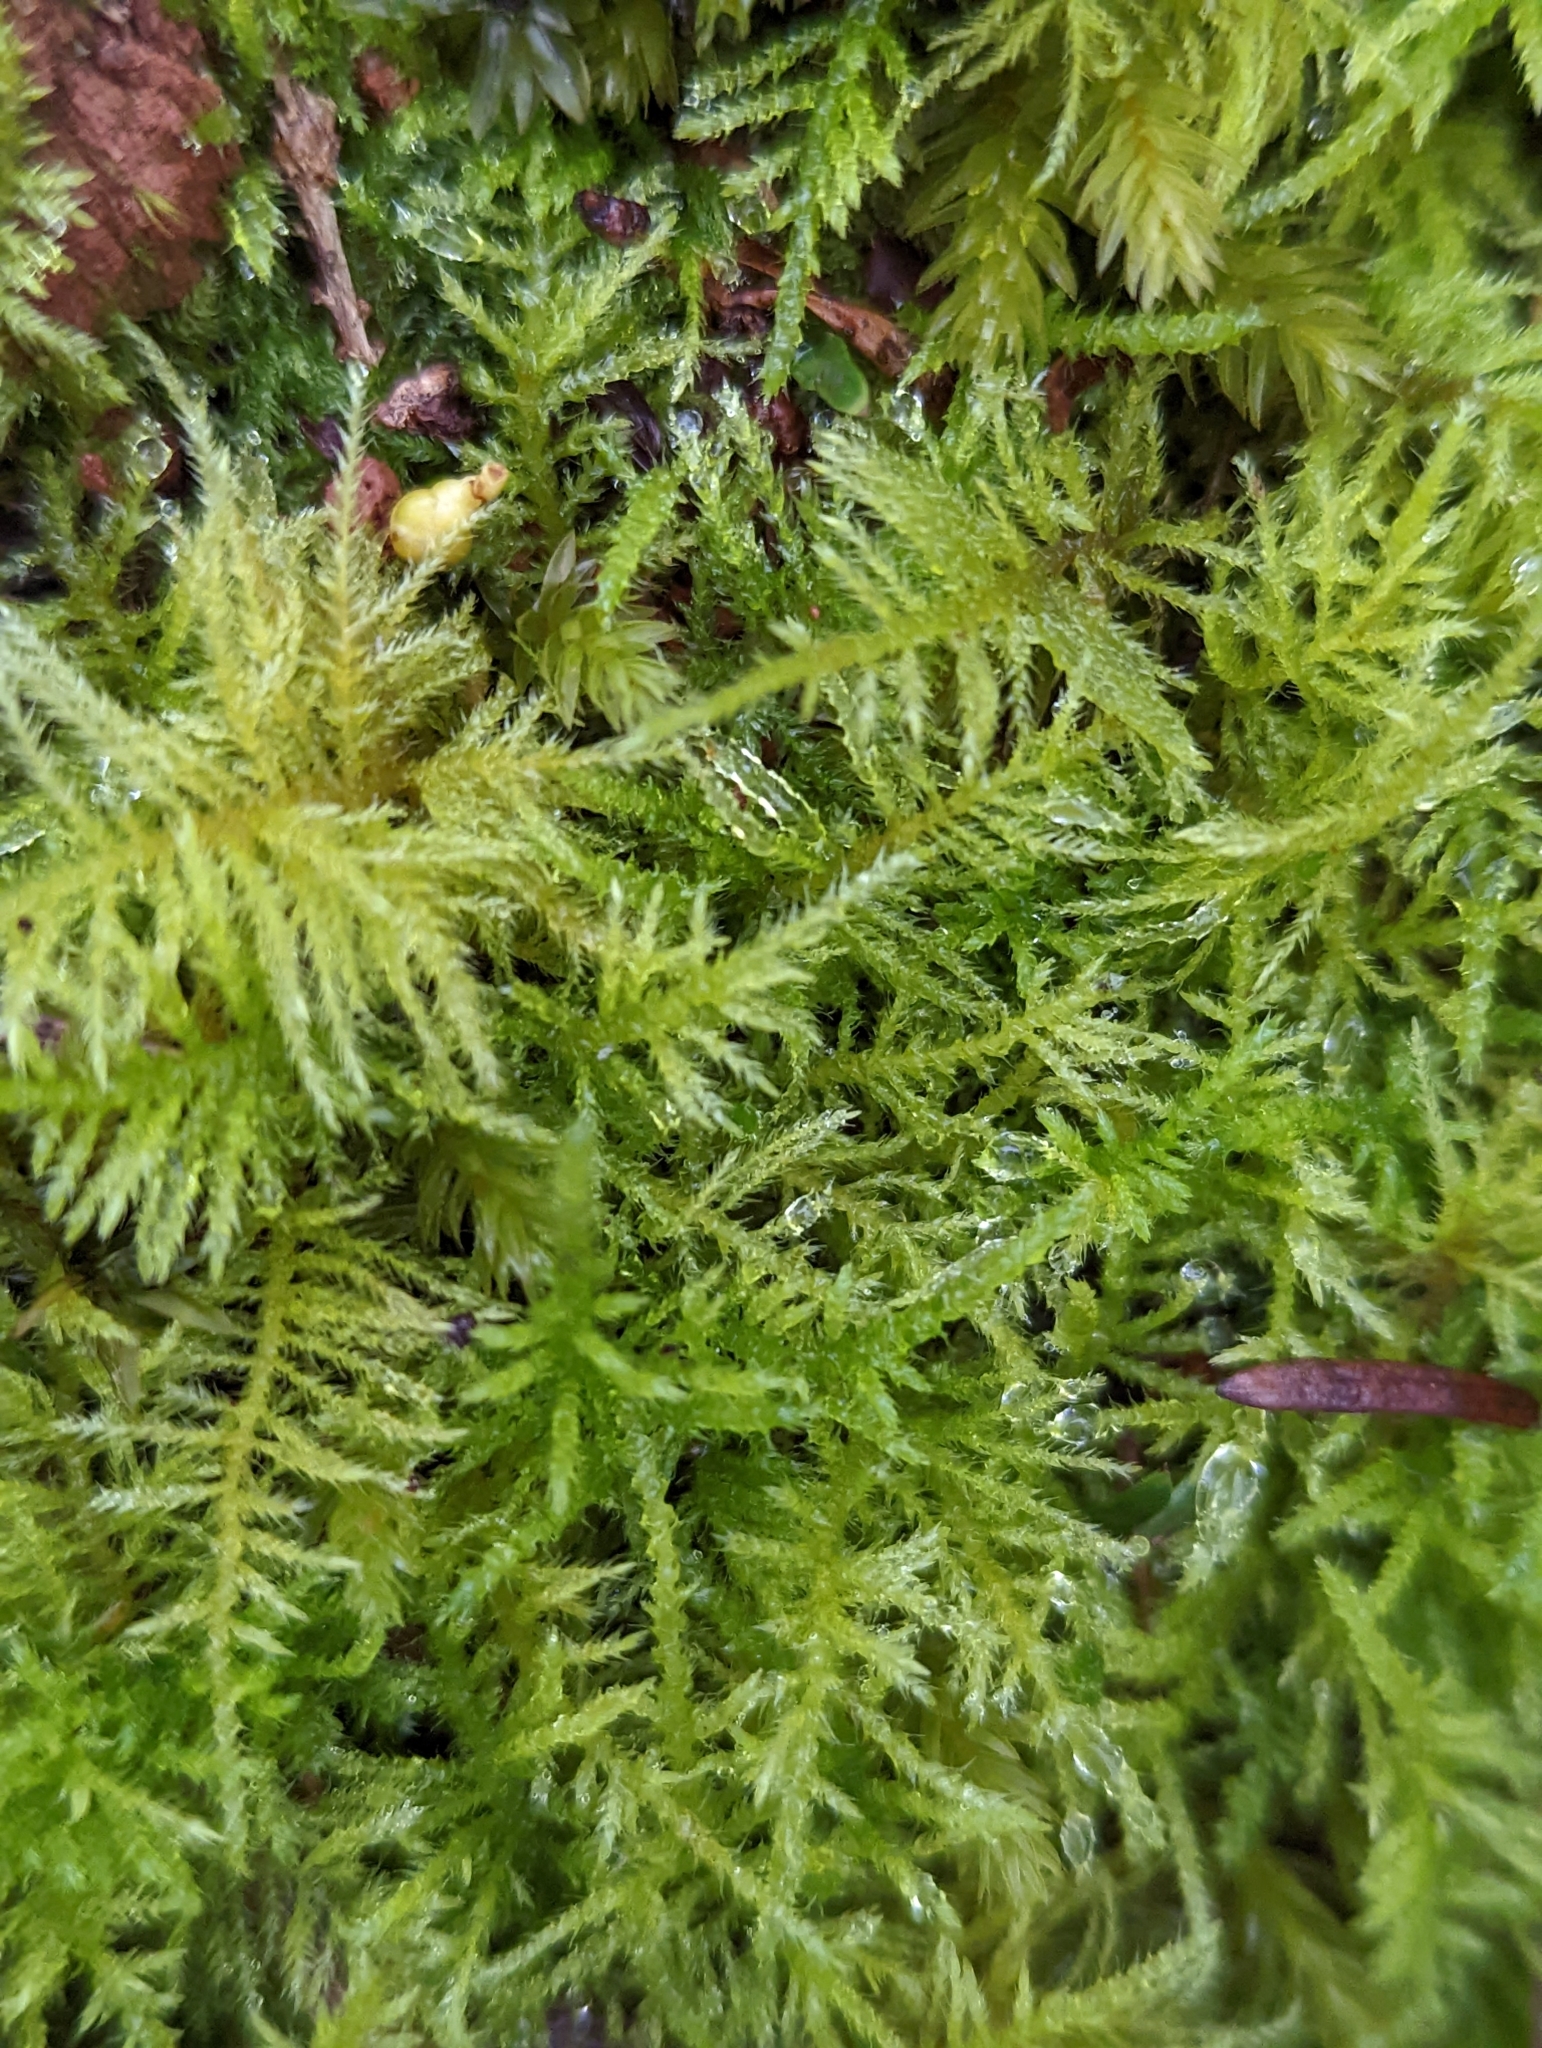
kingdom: Plantae
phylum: Bryophyta
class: Bryopsida
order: Hypnales
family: Brachytheciaceae
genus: Kindbergia
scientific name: Kindbergia praelonga
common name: Slender beaked moss
